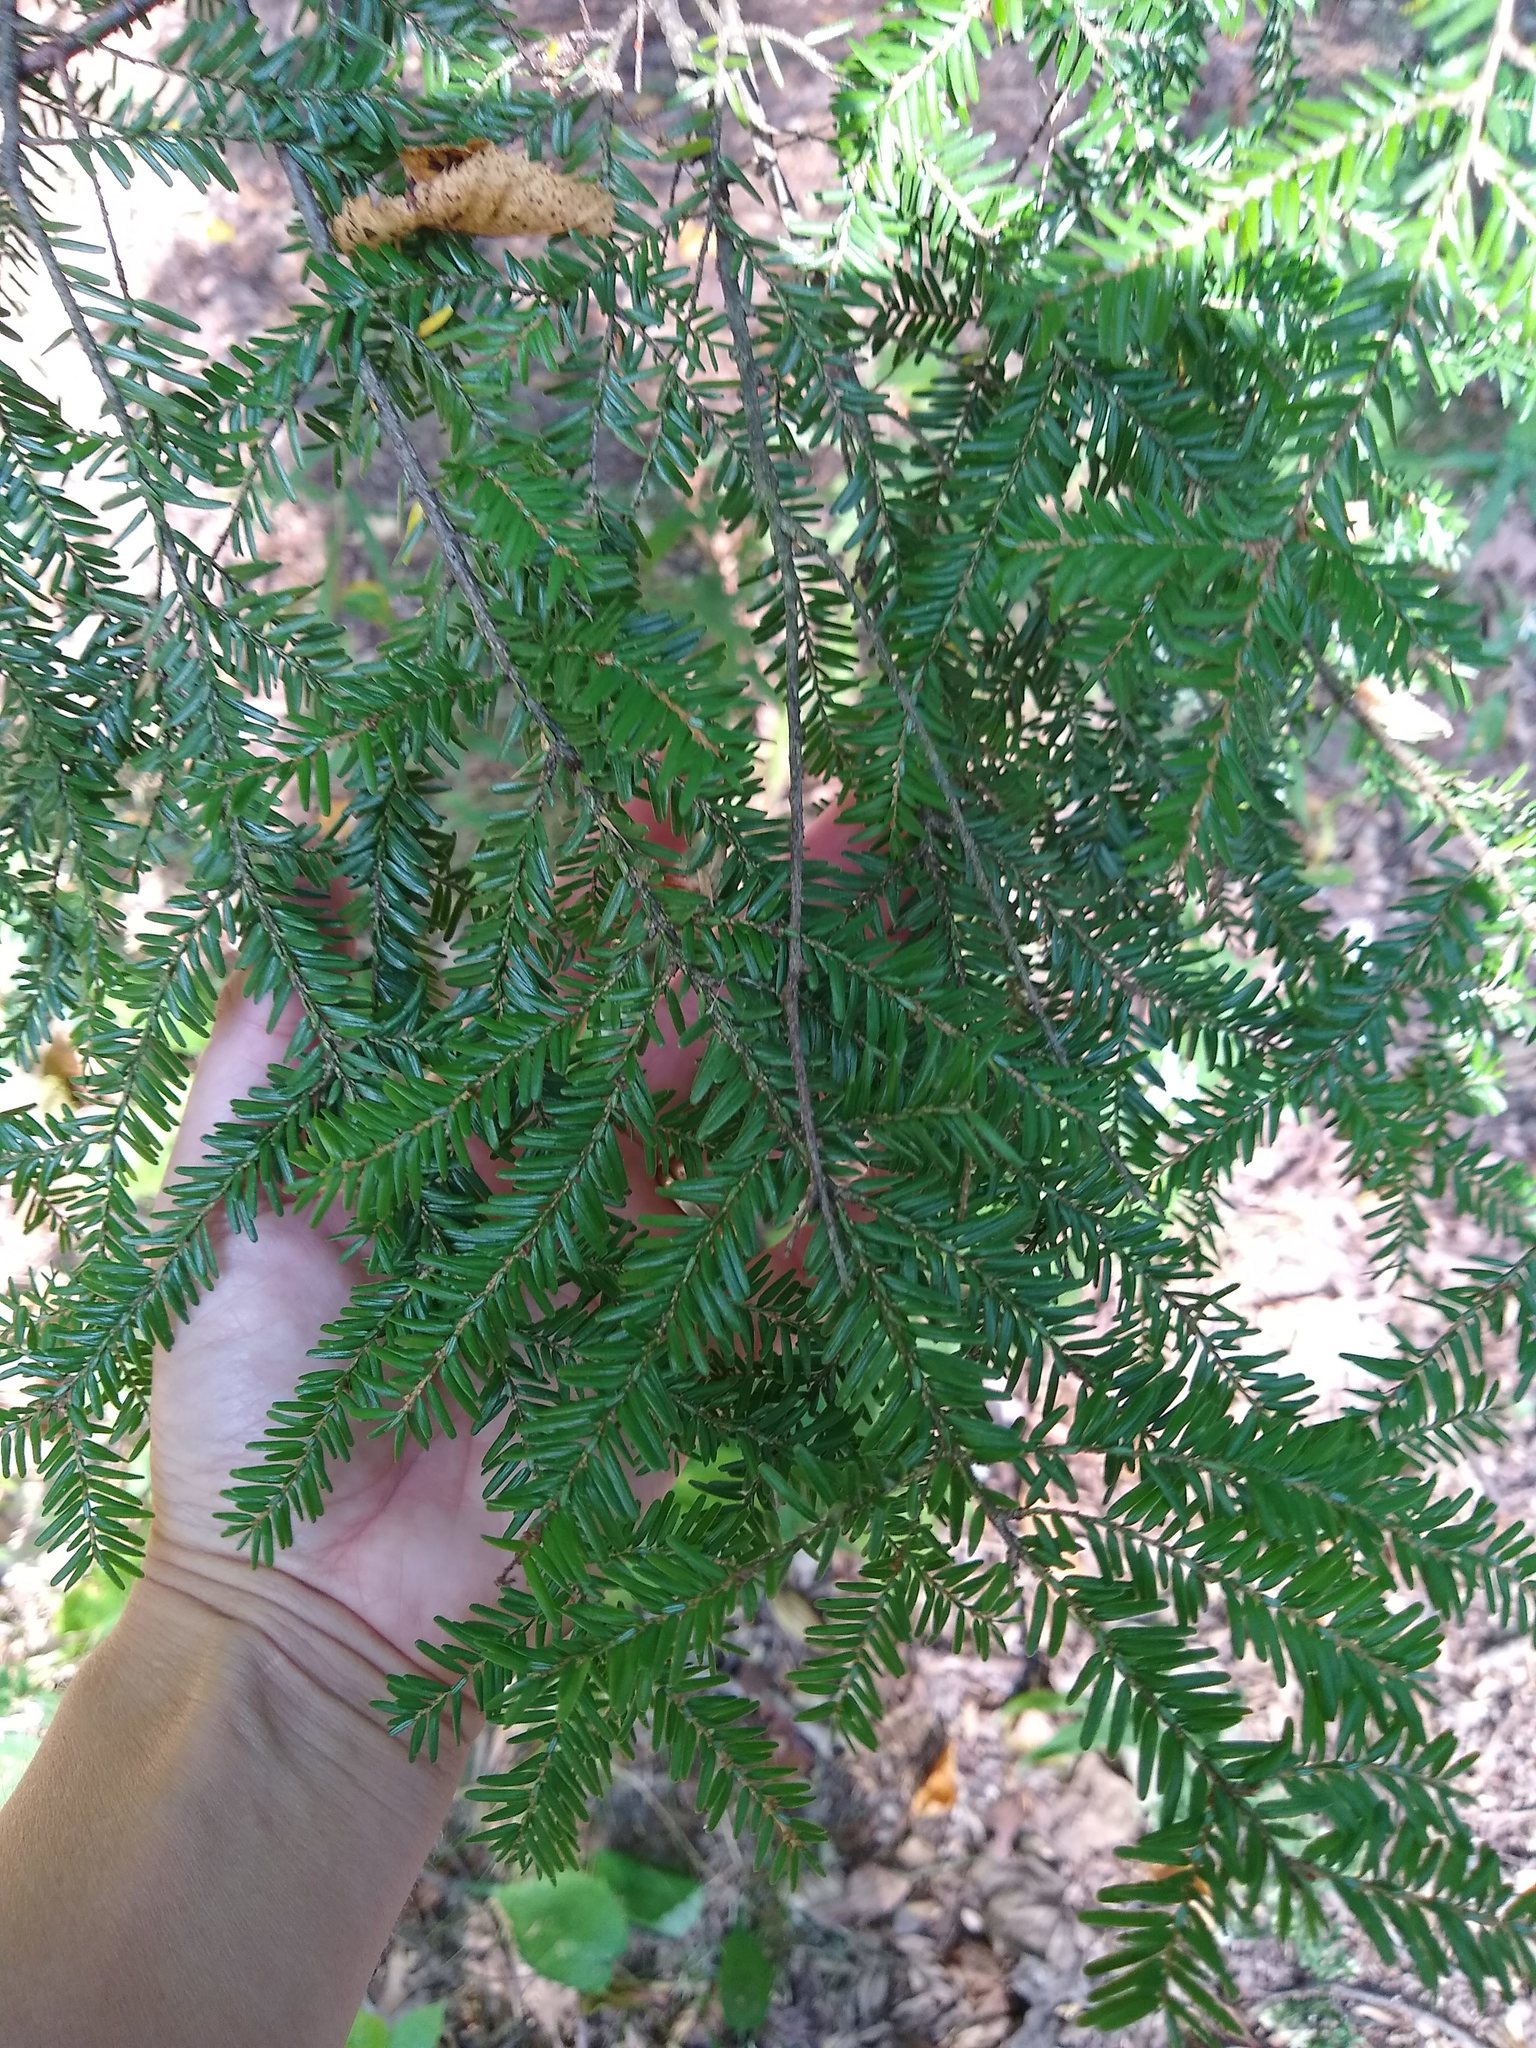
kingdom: Plantae
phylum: Tracheophyta
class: Pinopsida
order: Pinales
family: Pinaceae
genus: Tsuga
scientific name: Tsuga canadensis
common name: Eastern hemlock
